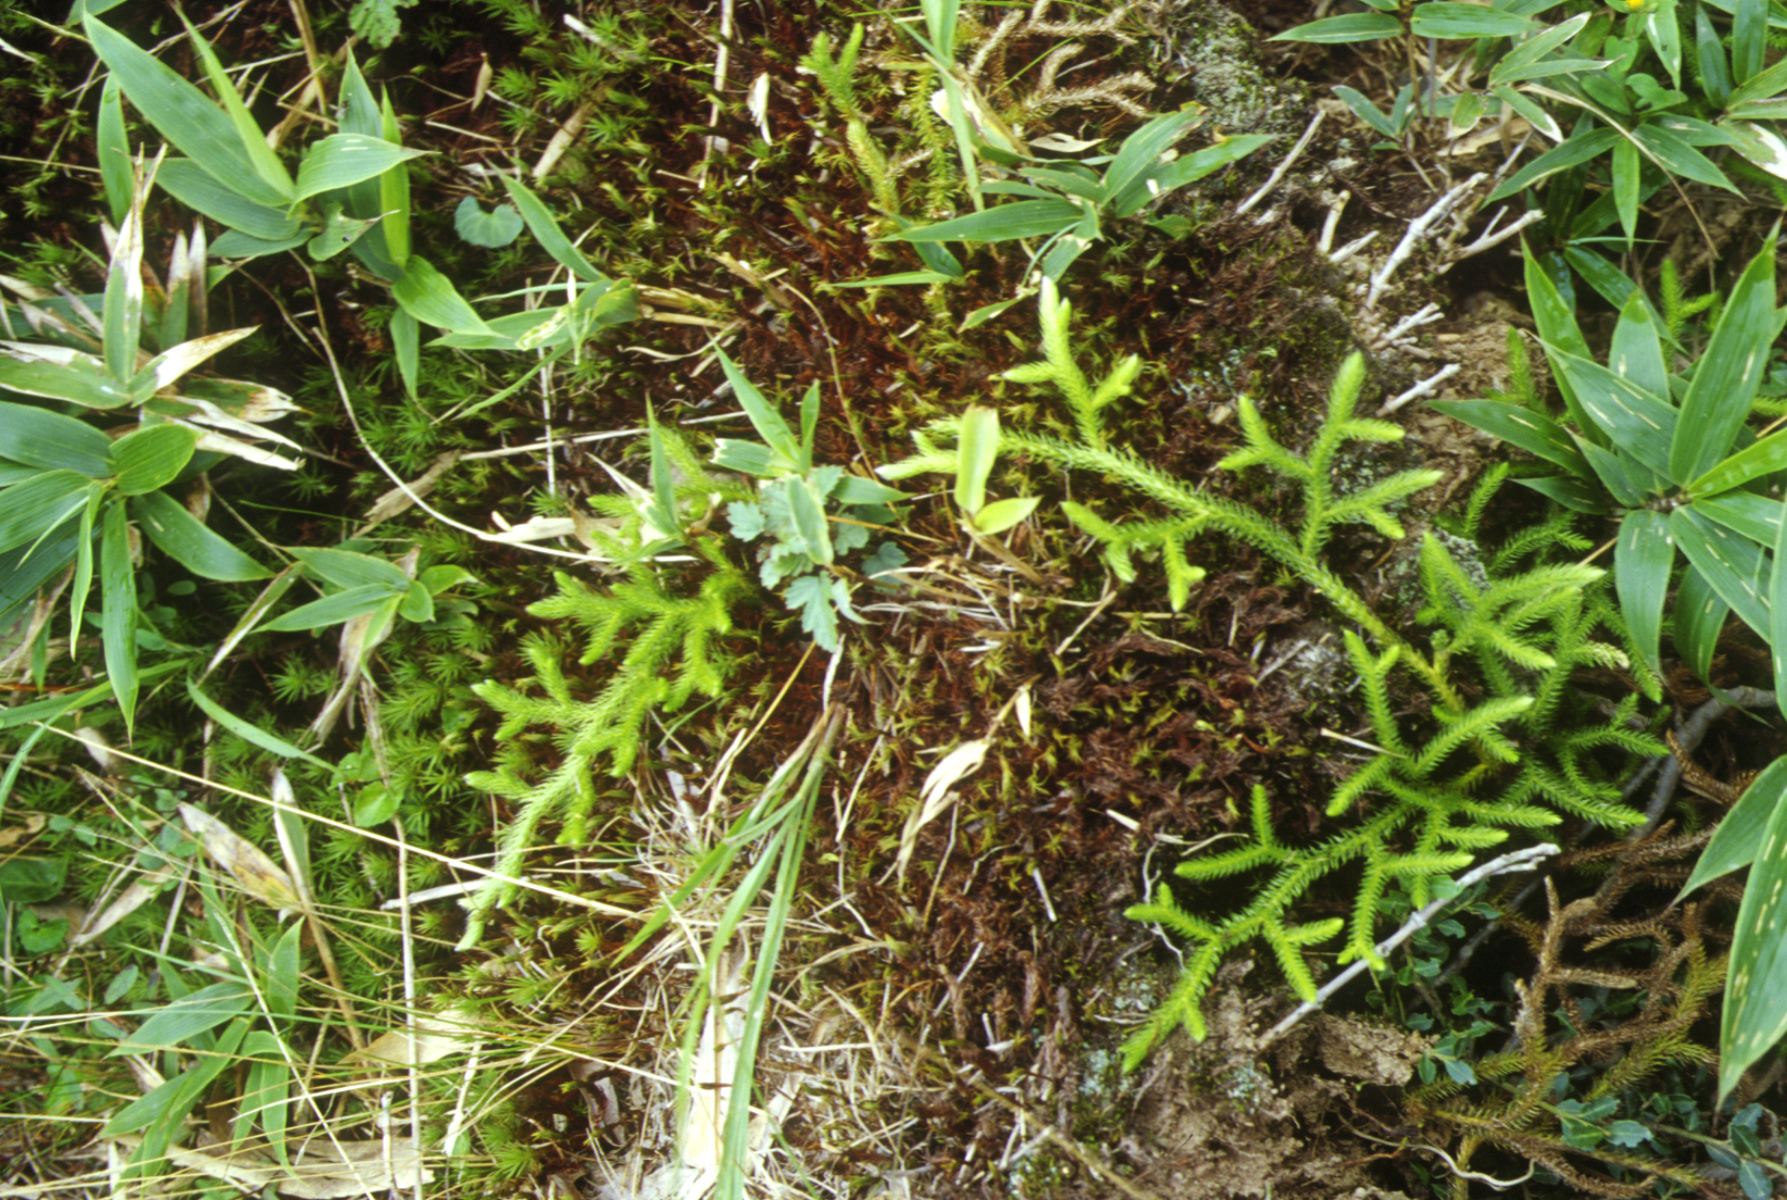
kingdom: Plantae
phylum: Tracheophyta
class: Lycopodiopsida
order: Lycopodiales
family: Lycopodiaceae
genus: Lycopodium
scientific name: Lycopodium japonicum
